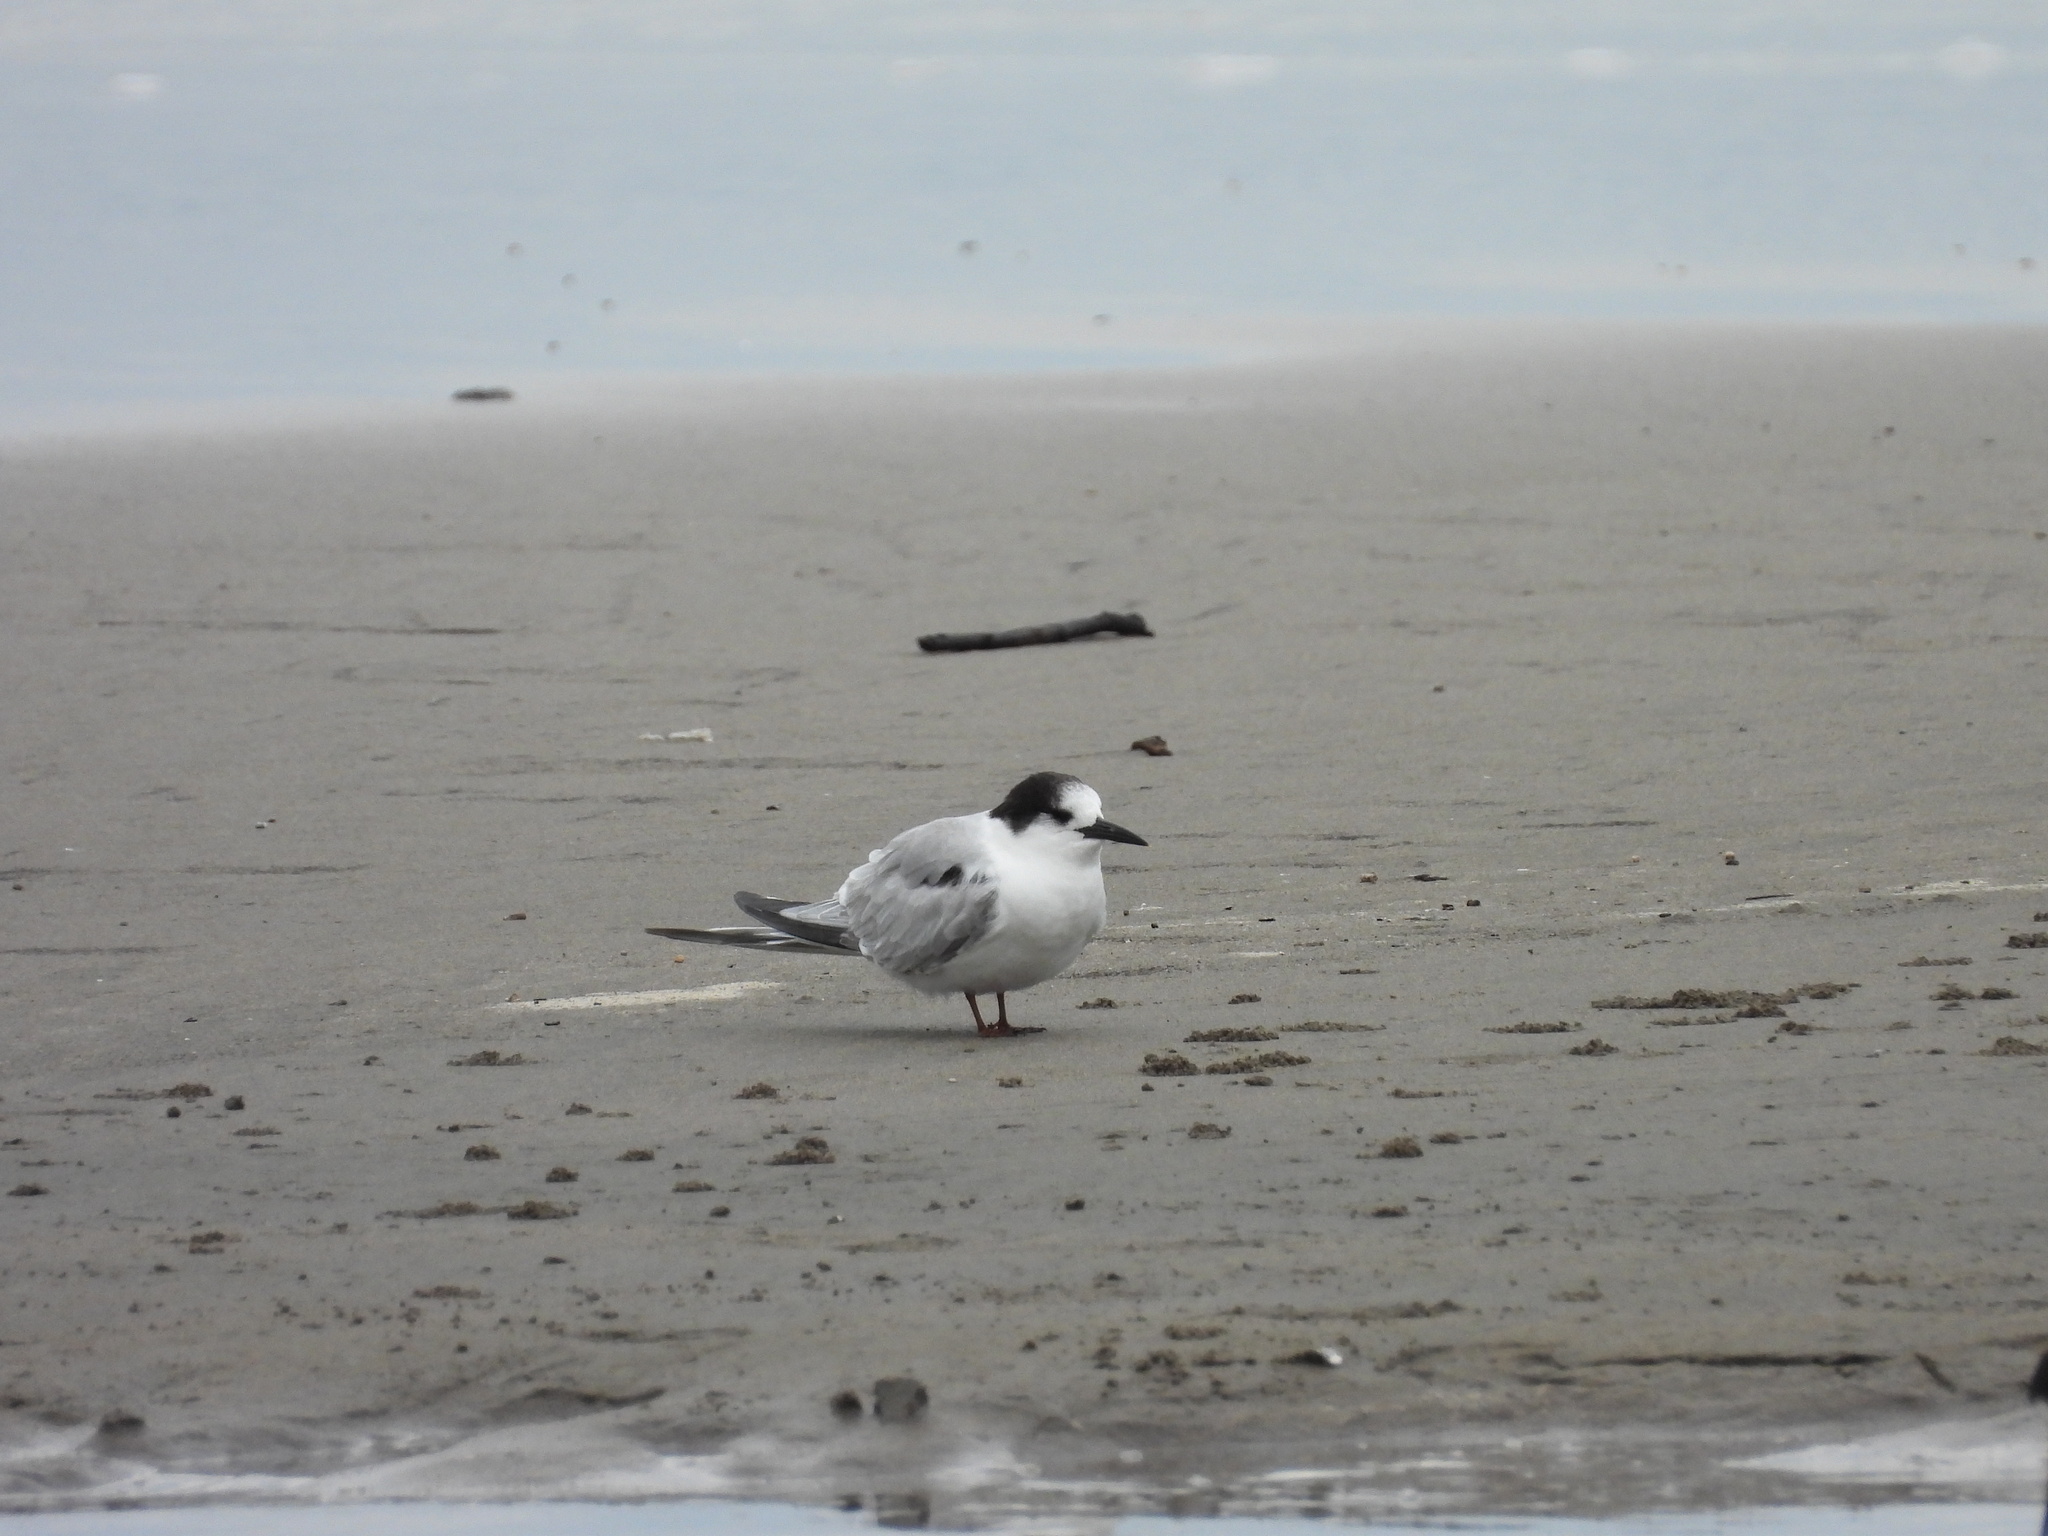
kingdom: Animalia
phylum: Chordata
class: Aves
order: Charadriiformes
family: Laridae
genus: Sterna
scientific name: Sterna hirundo
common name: Common tern
